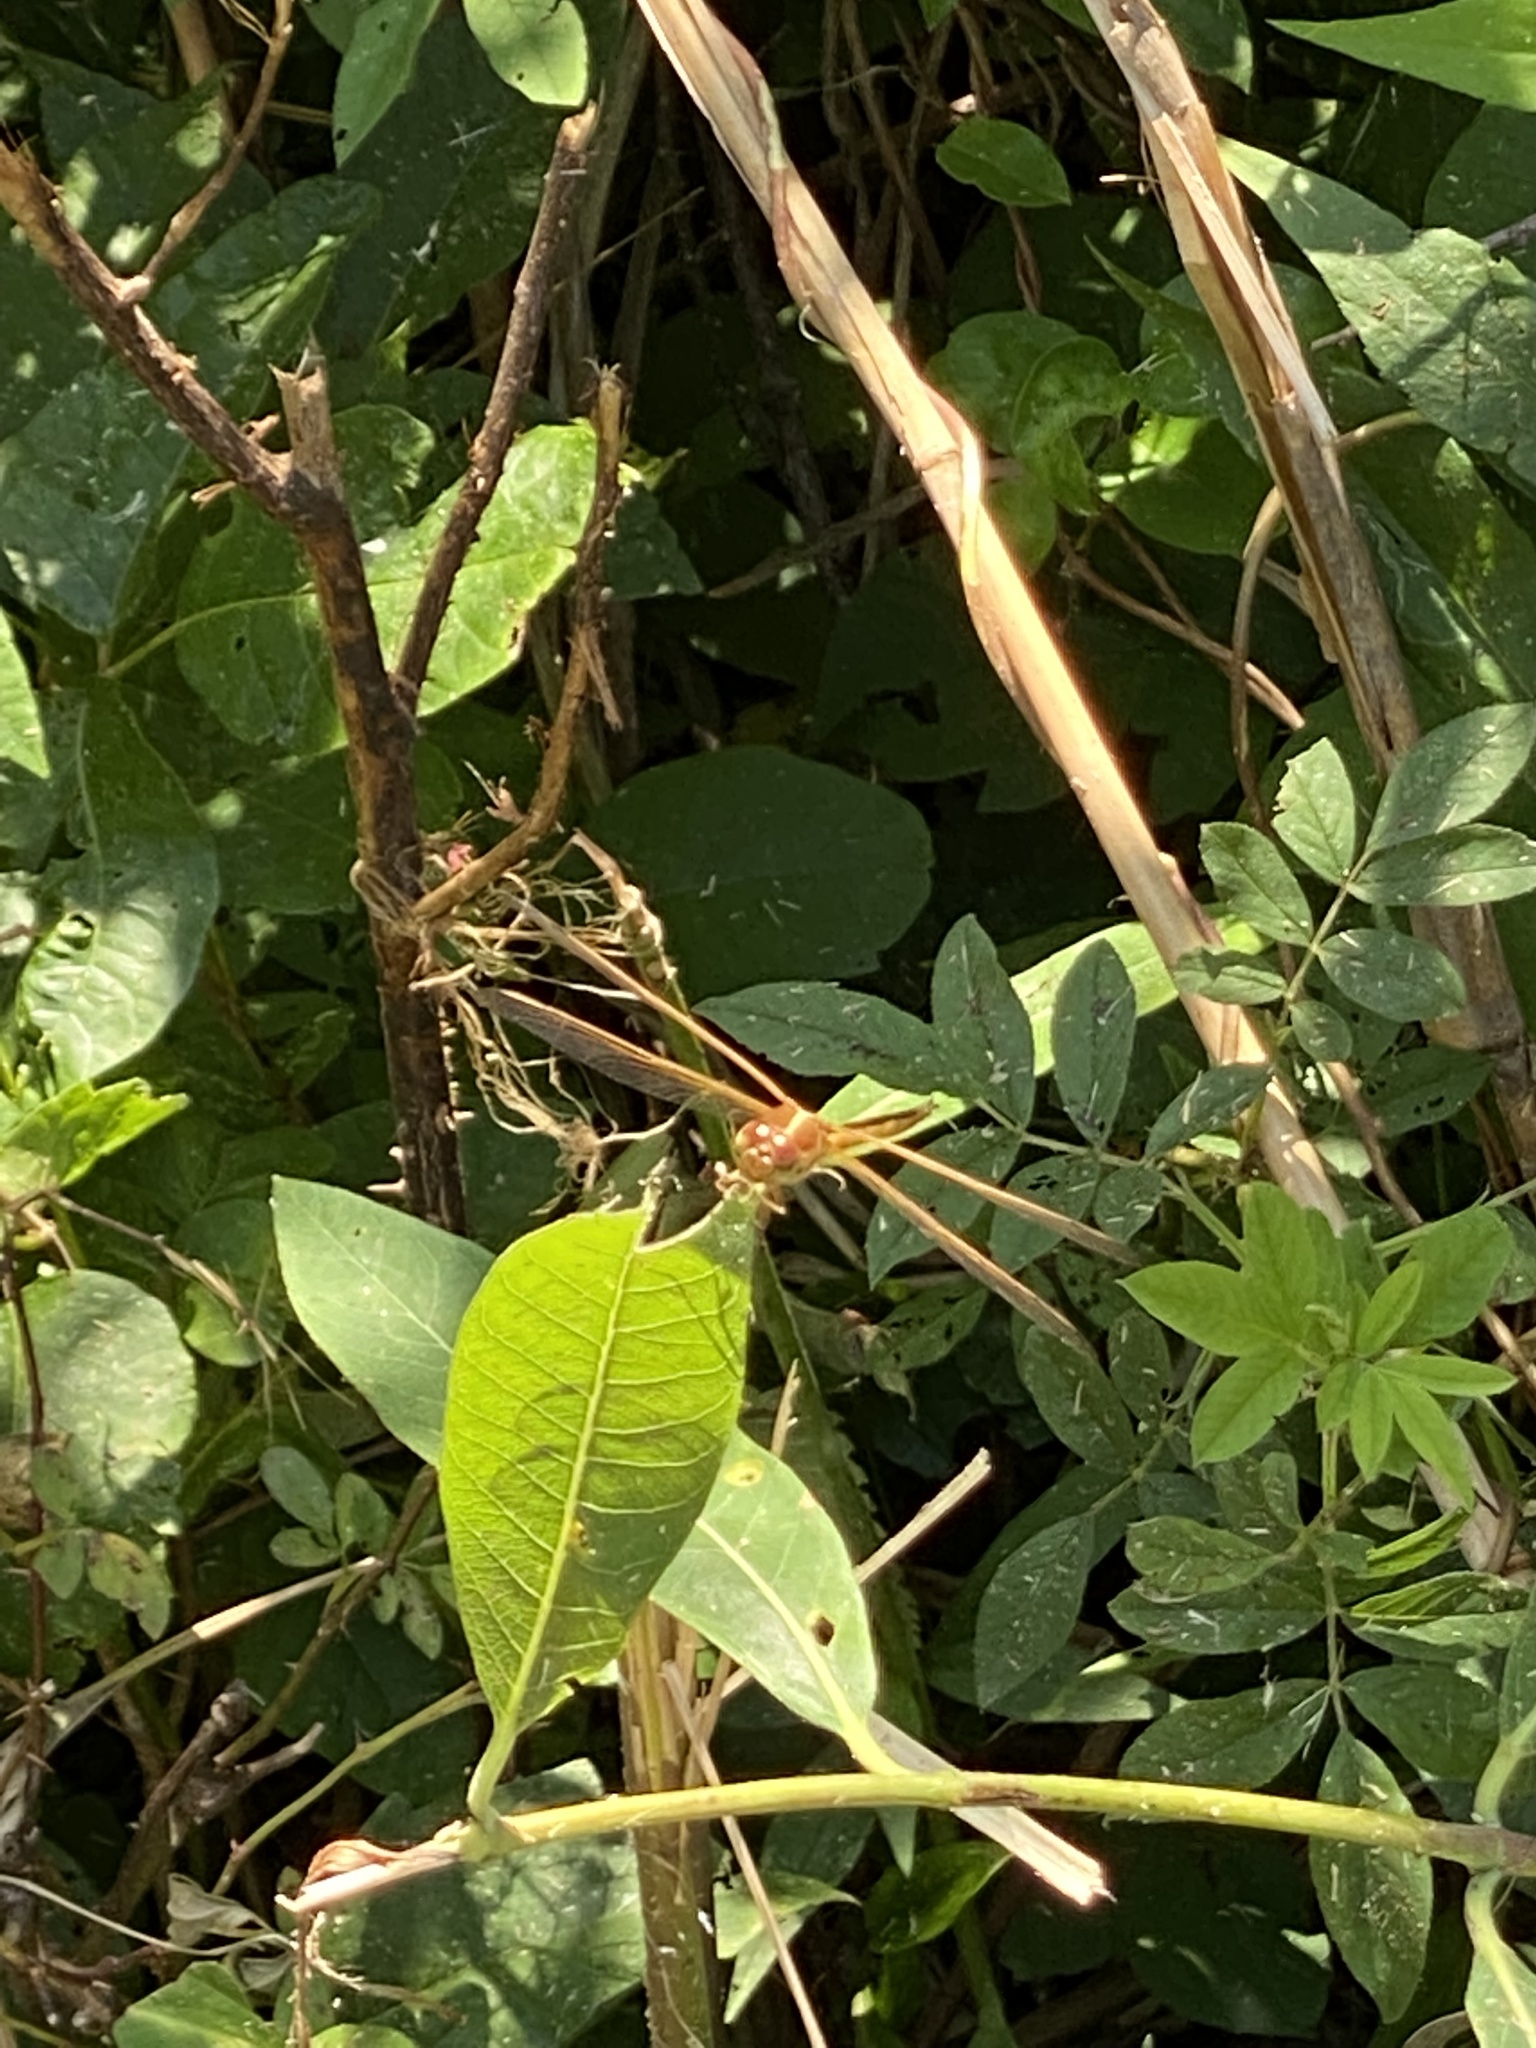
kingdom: Animalia
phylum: Arthropoda
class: Insecta
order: Odonata
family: Libellulidae
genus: Libellula
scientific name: Libellula needhami
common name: Needham's skimmer
